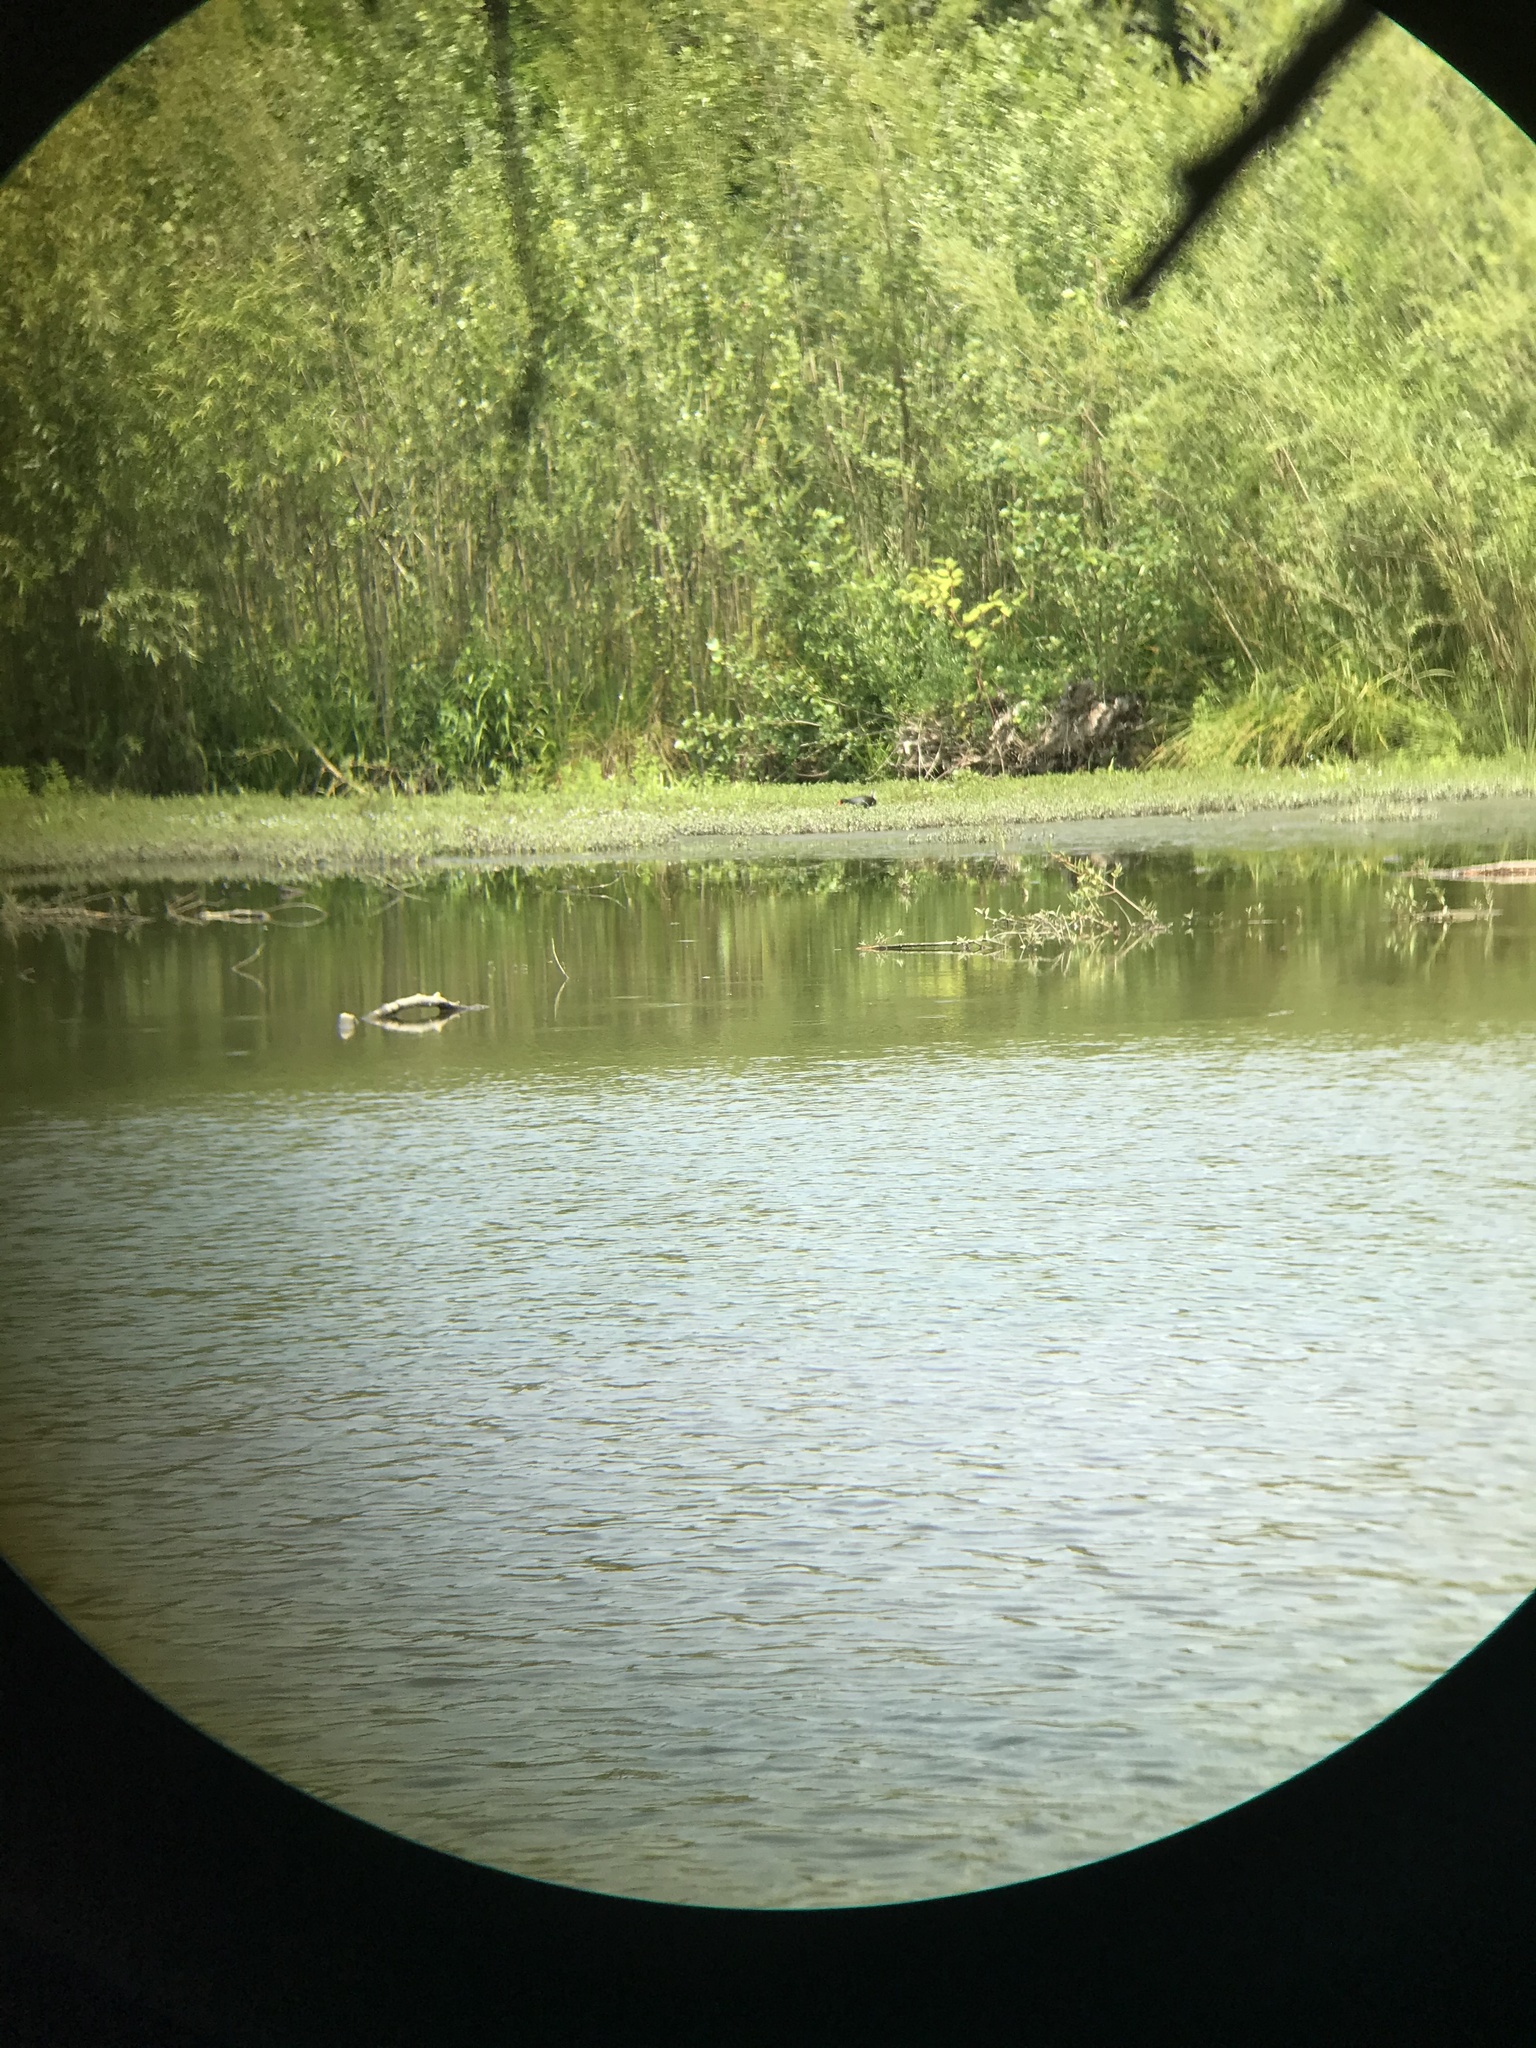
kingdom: Animalia
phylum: Chordata
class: Aves
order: Gruiformes
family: Rallidae
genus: Gallinula
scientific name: Gallinula chloropus
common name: Common moorhen
